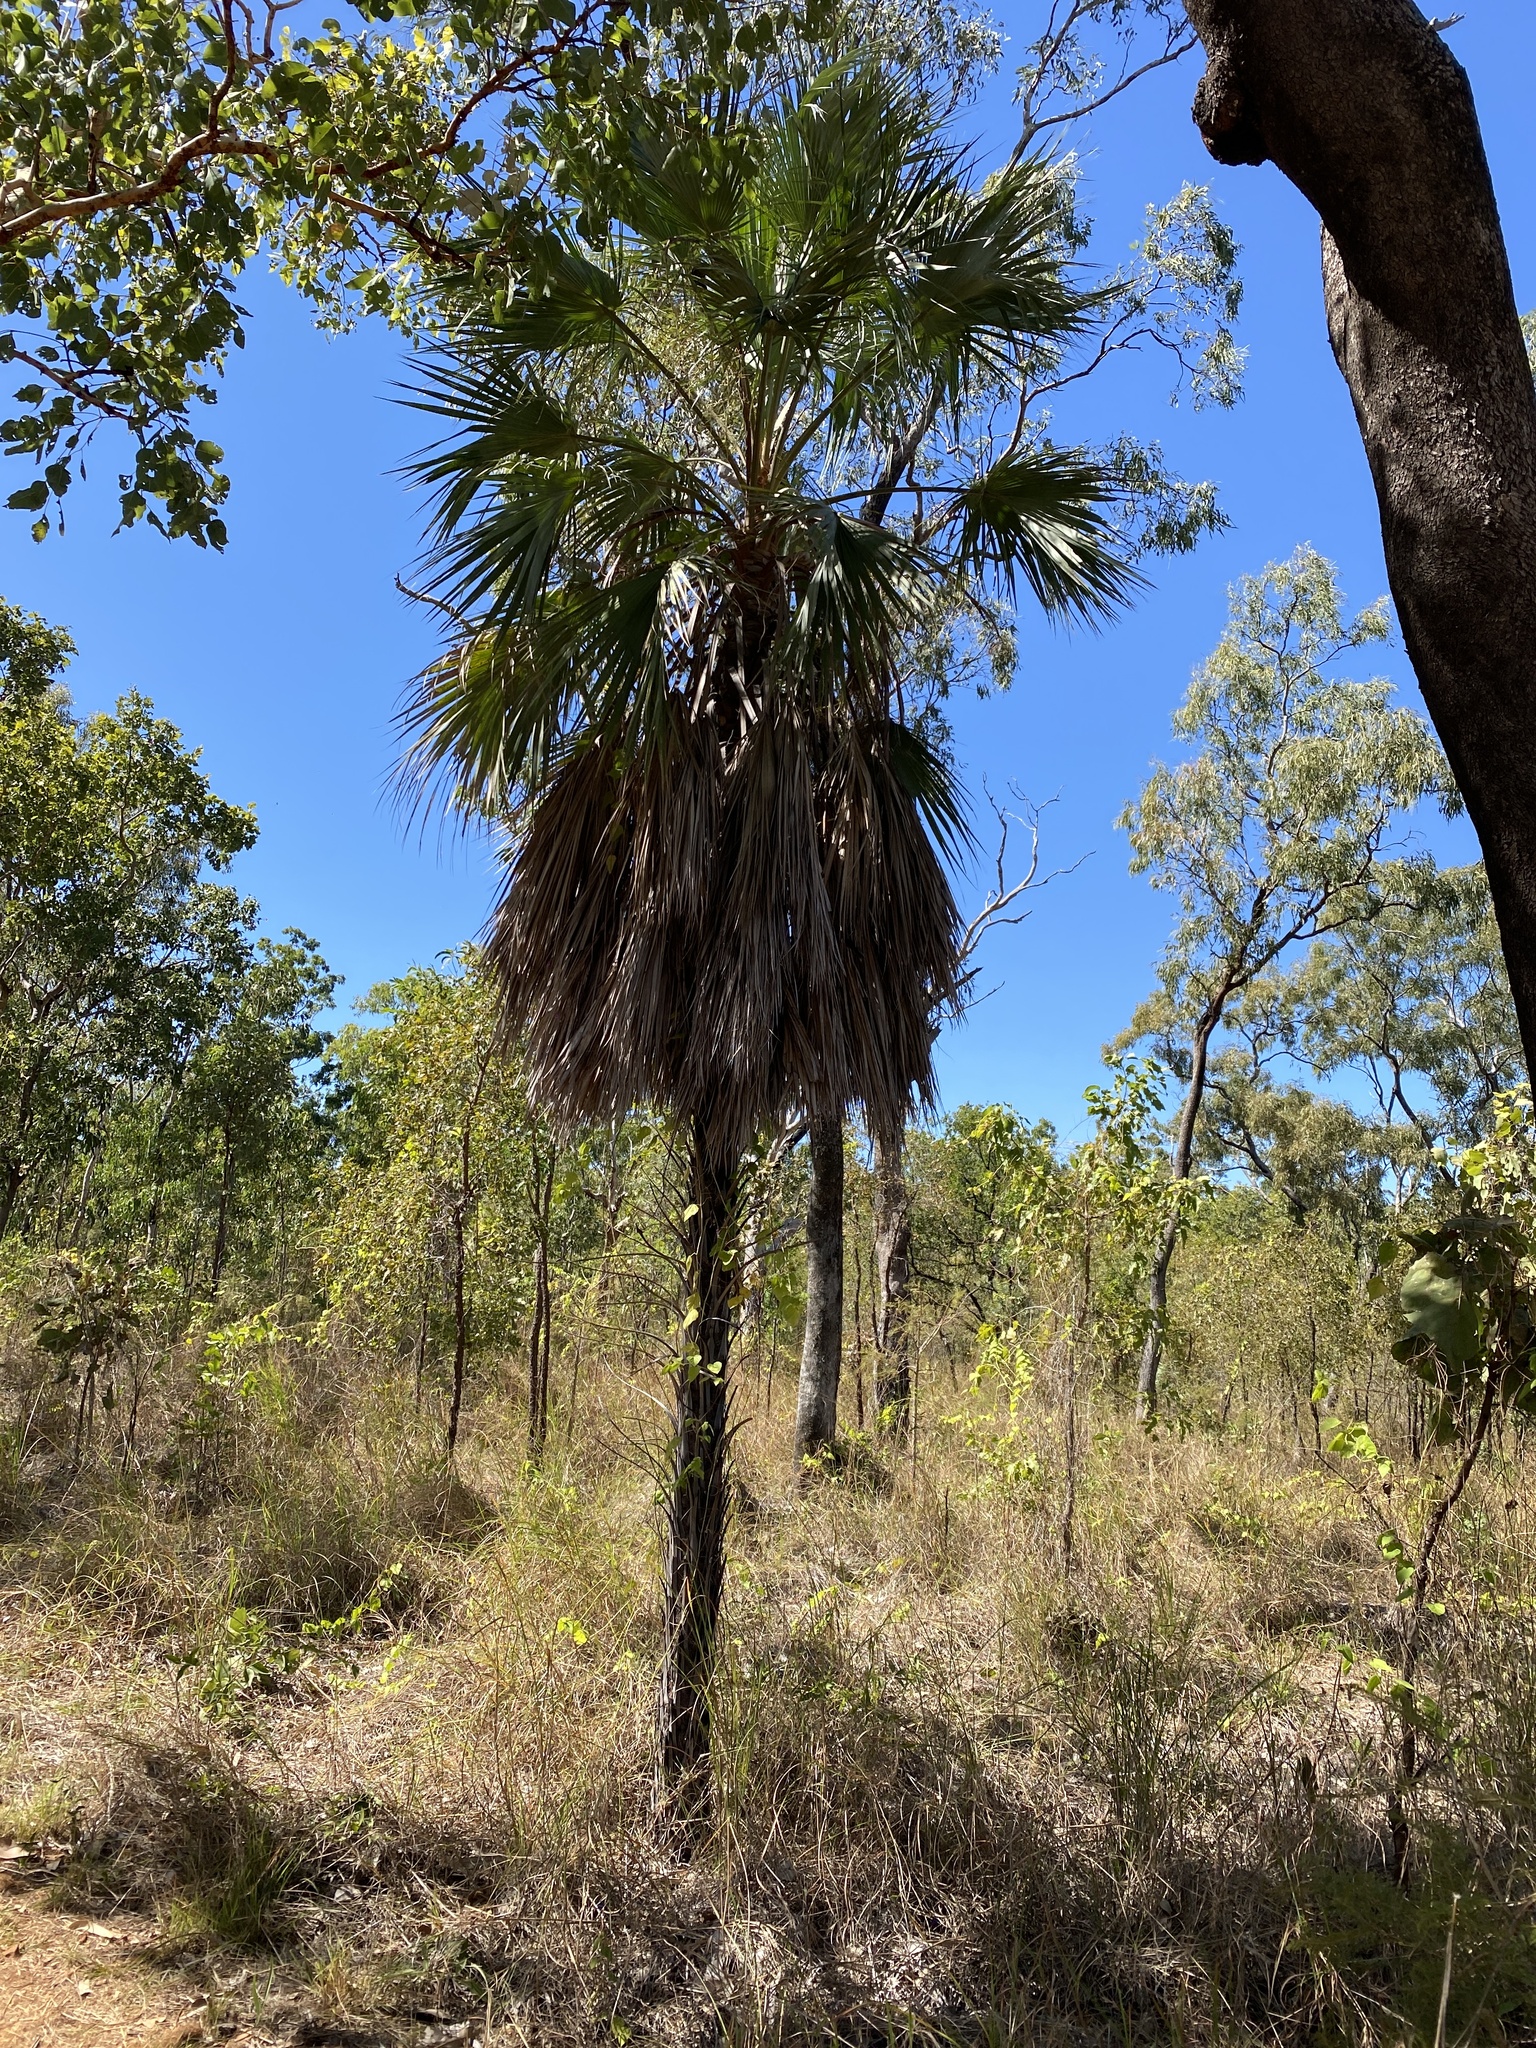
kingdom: Plantae
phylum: Tracheophyta
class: Liliopsida
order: Arecales
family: Arecaceae
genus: Livistona
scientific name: Livistona eastonii
